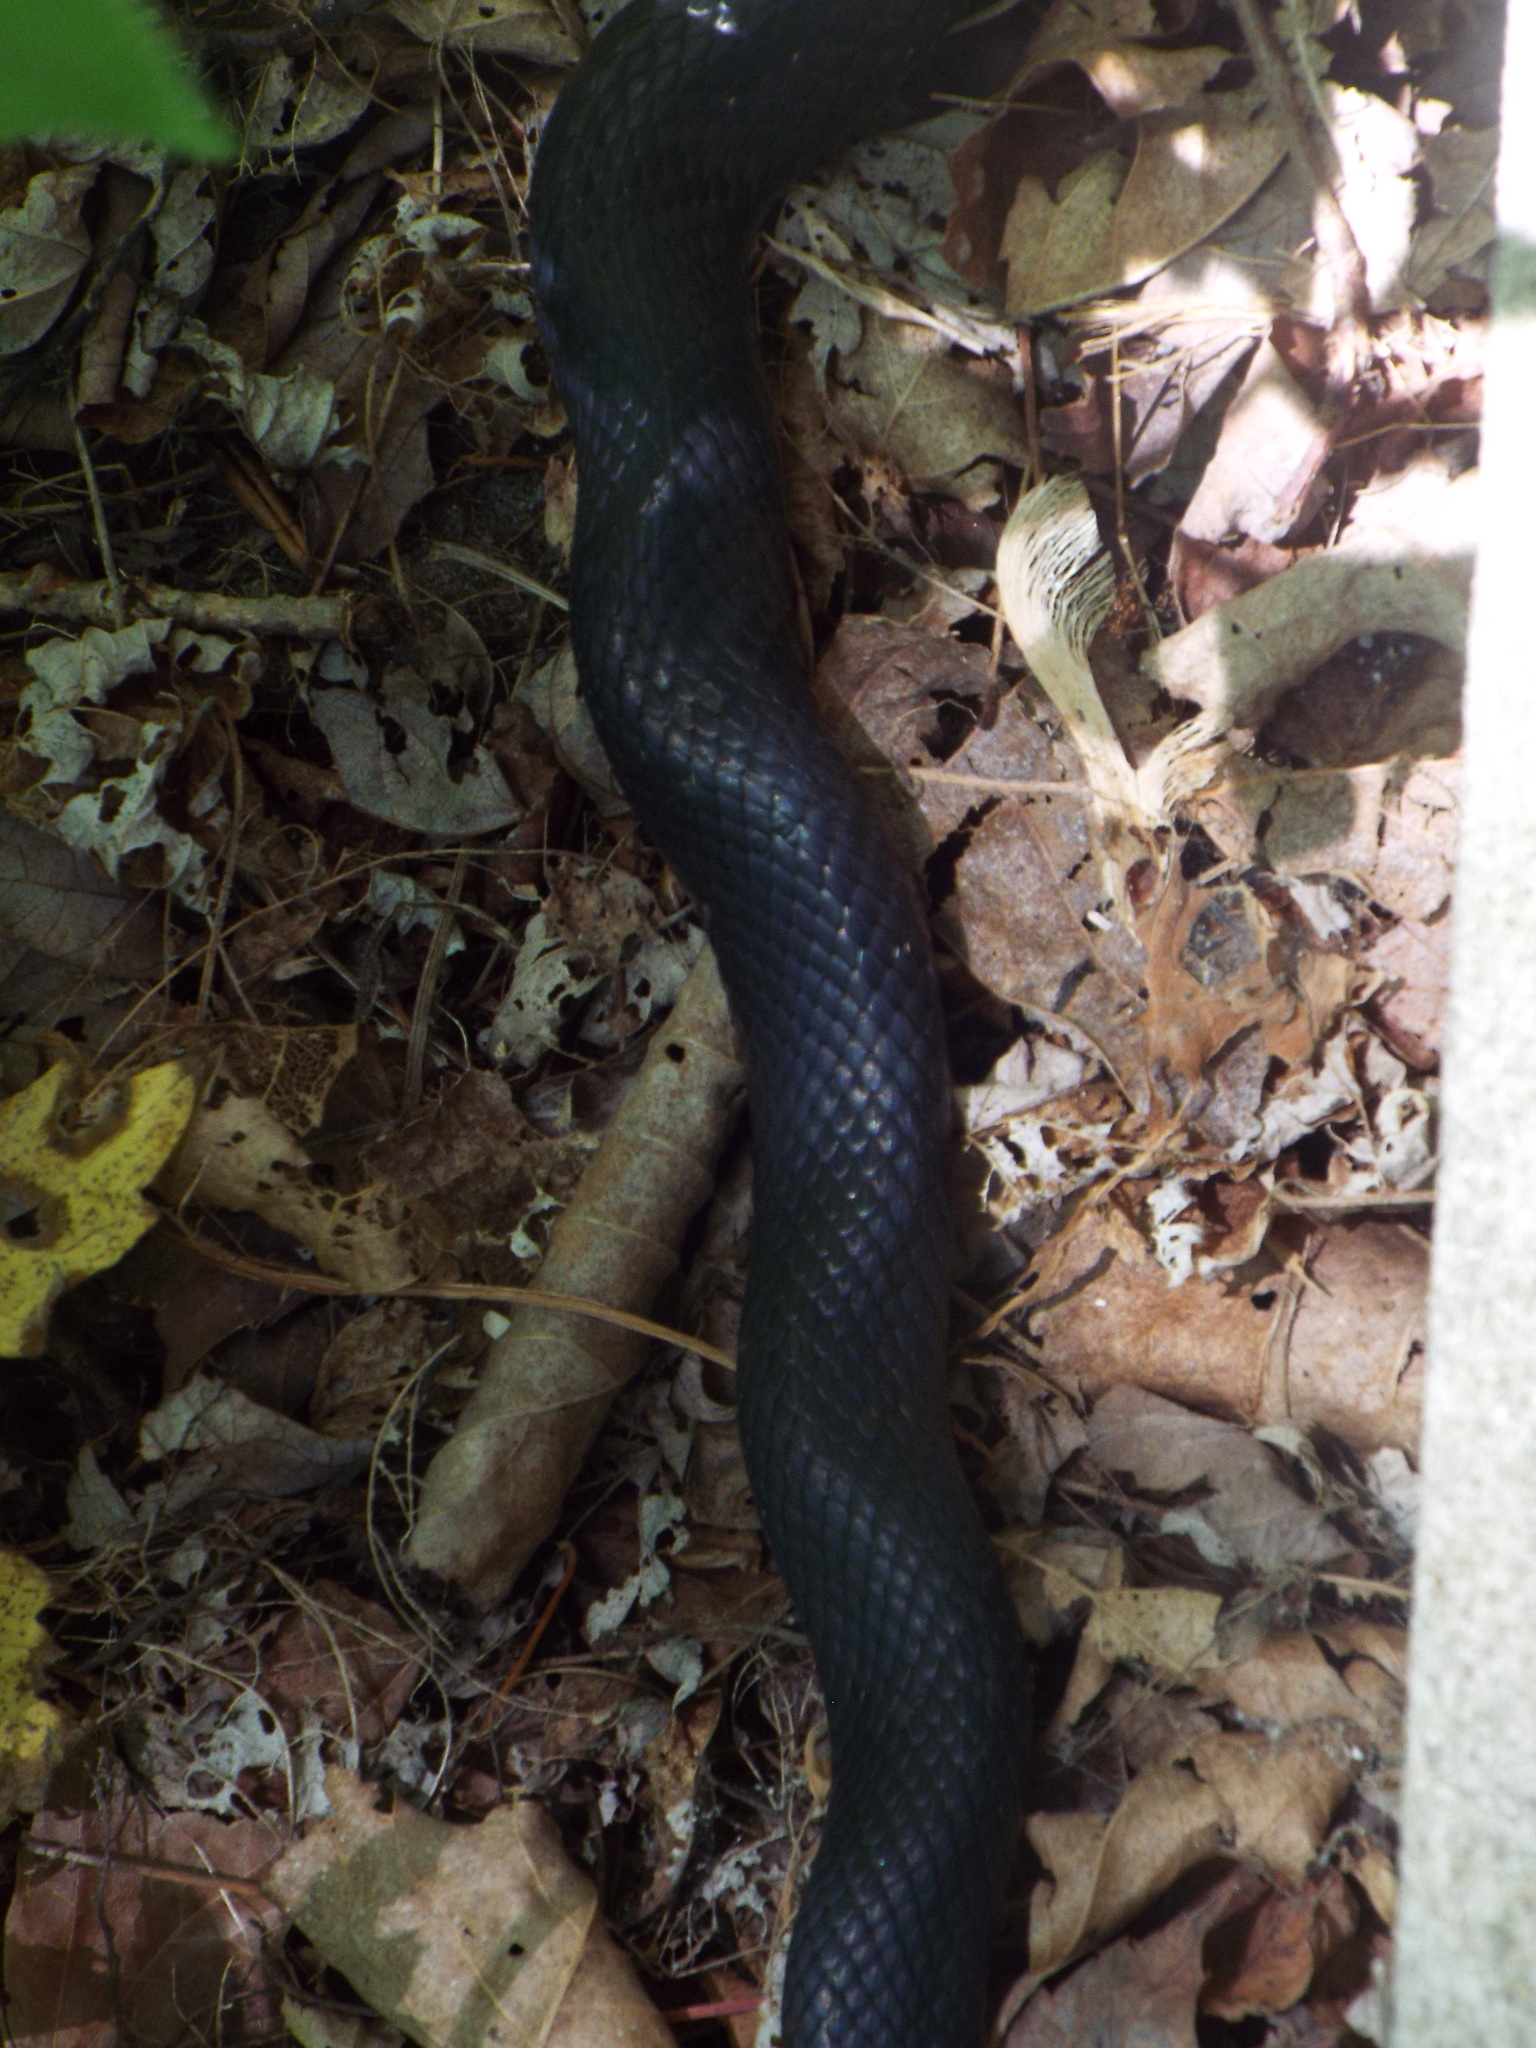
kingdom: Animalia
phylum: Chordata
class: Squamata
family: Colubridae
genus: Pantherophis
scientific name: Pantherophis alleghaniensis
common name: Eastern rat snake
